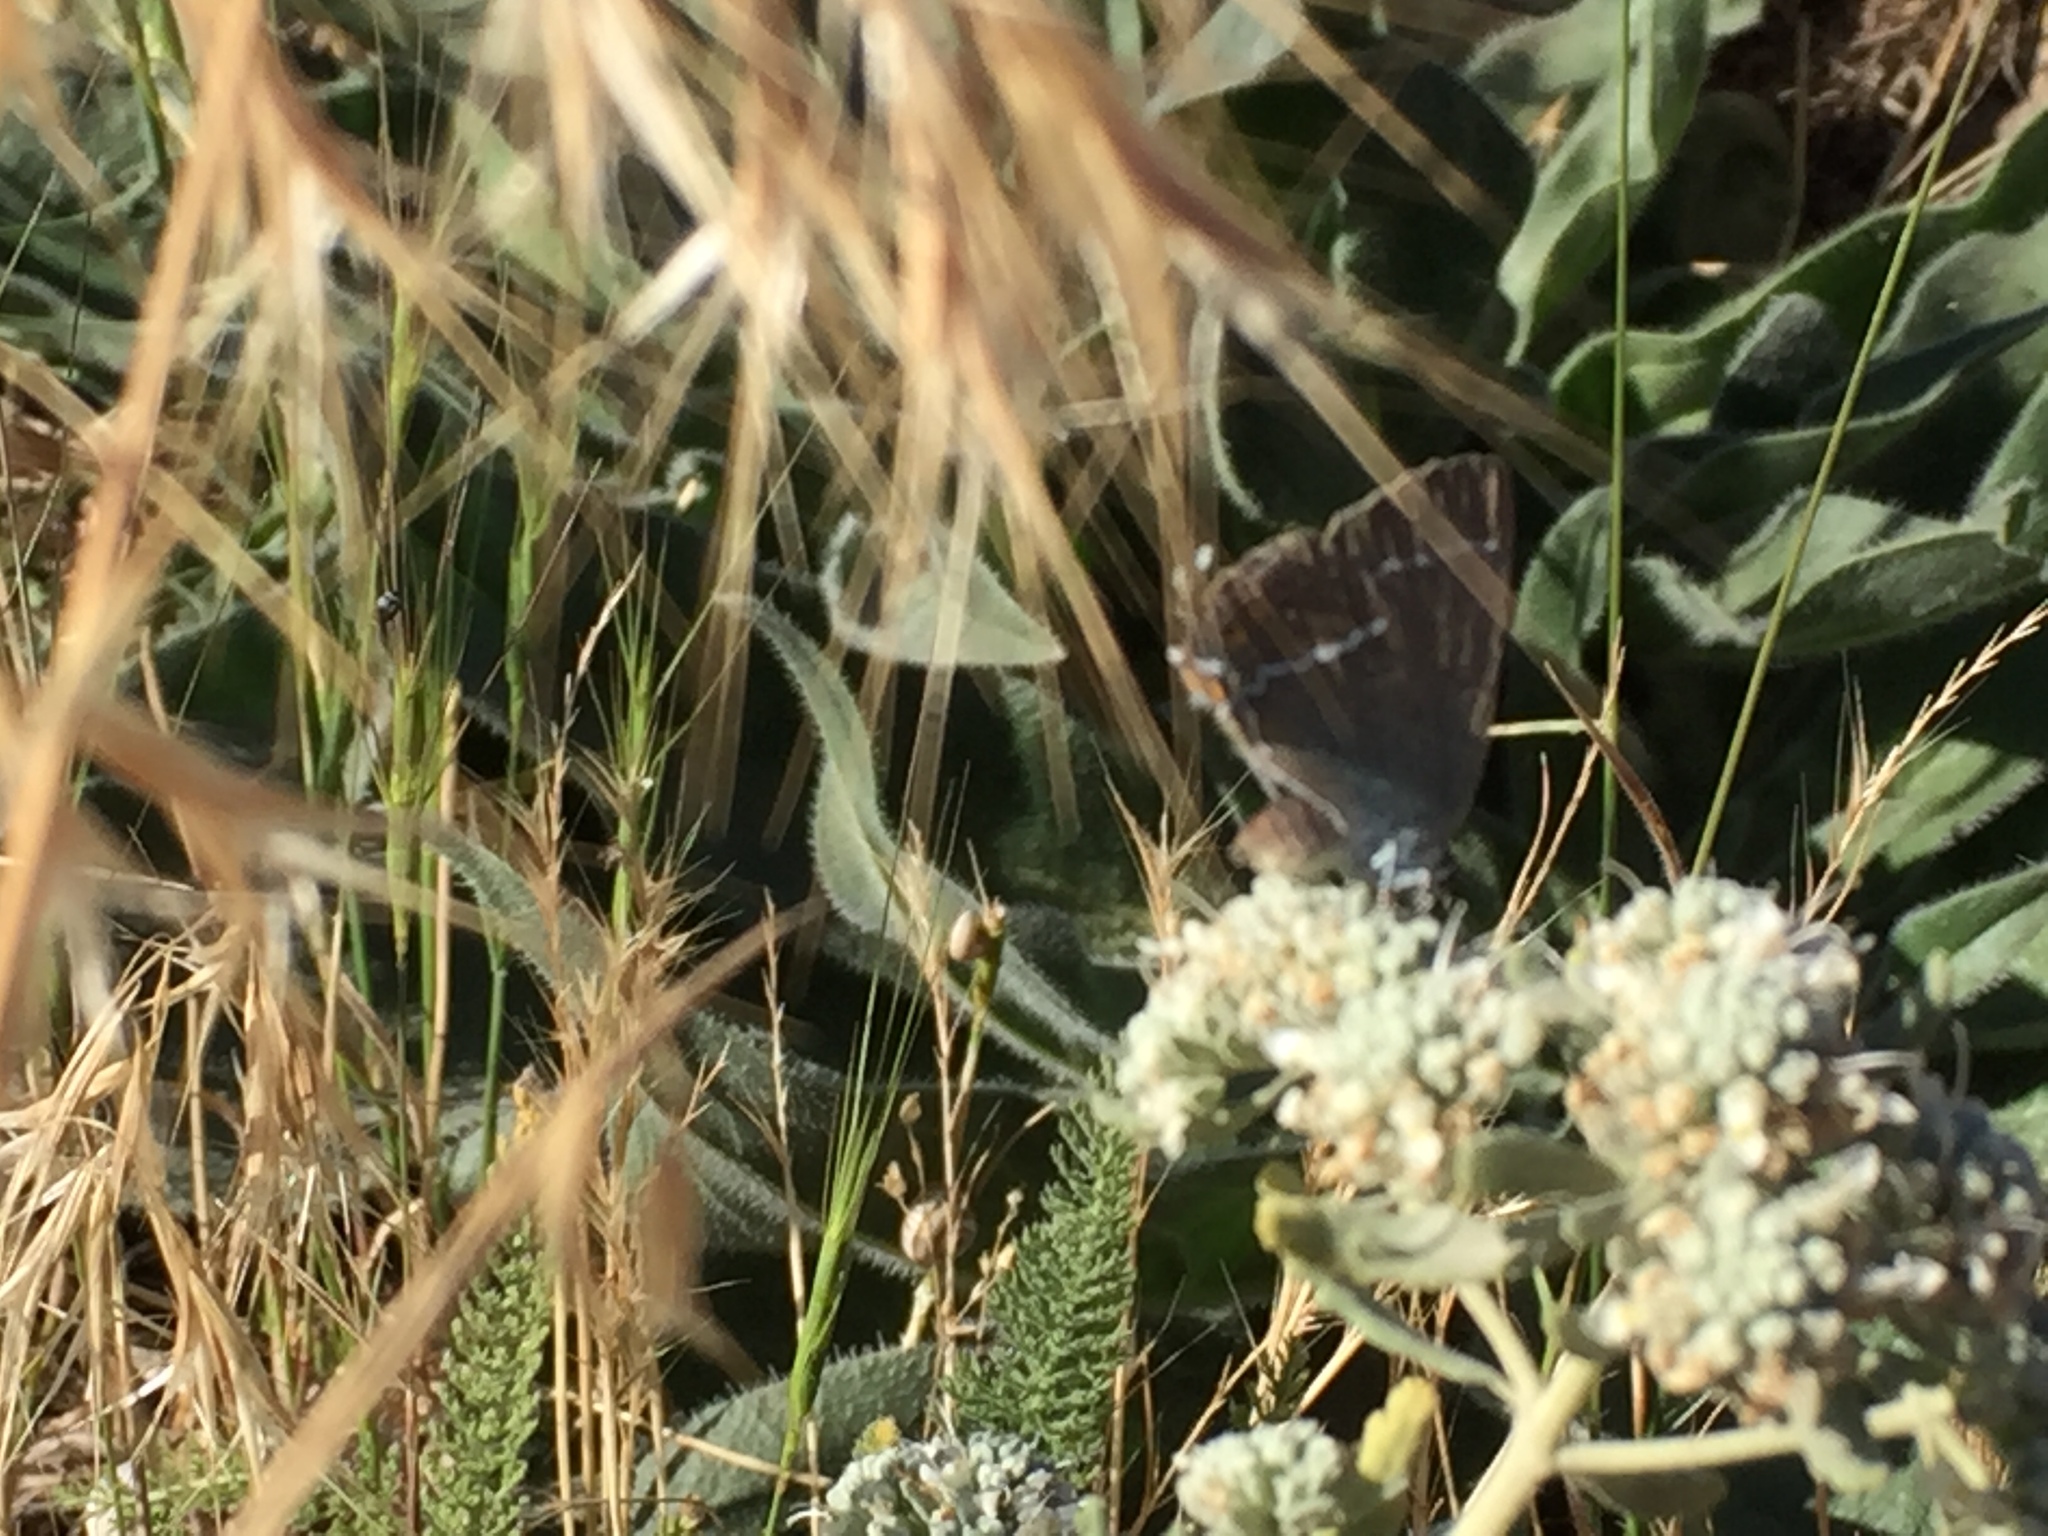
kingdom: Animalia
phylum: Arthropoda
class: Insecta
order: Lepidoptera
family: Lycaenidae
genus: Tuttiola
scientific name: Tuttiola spini
